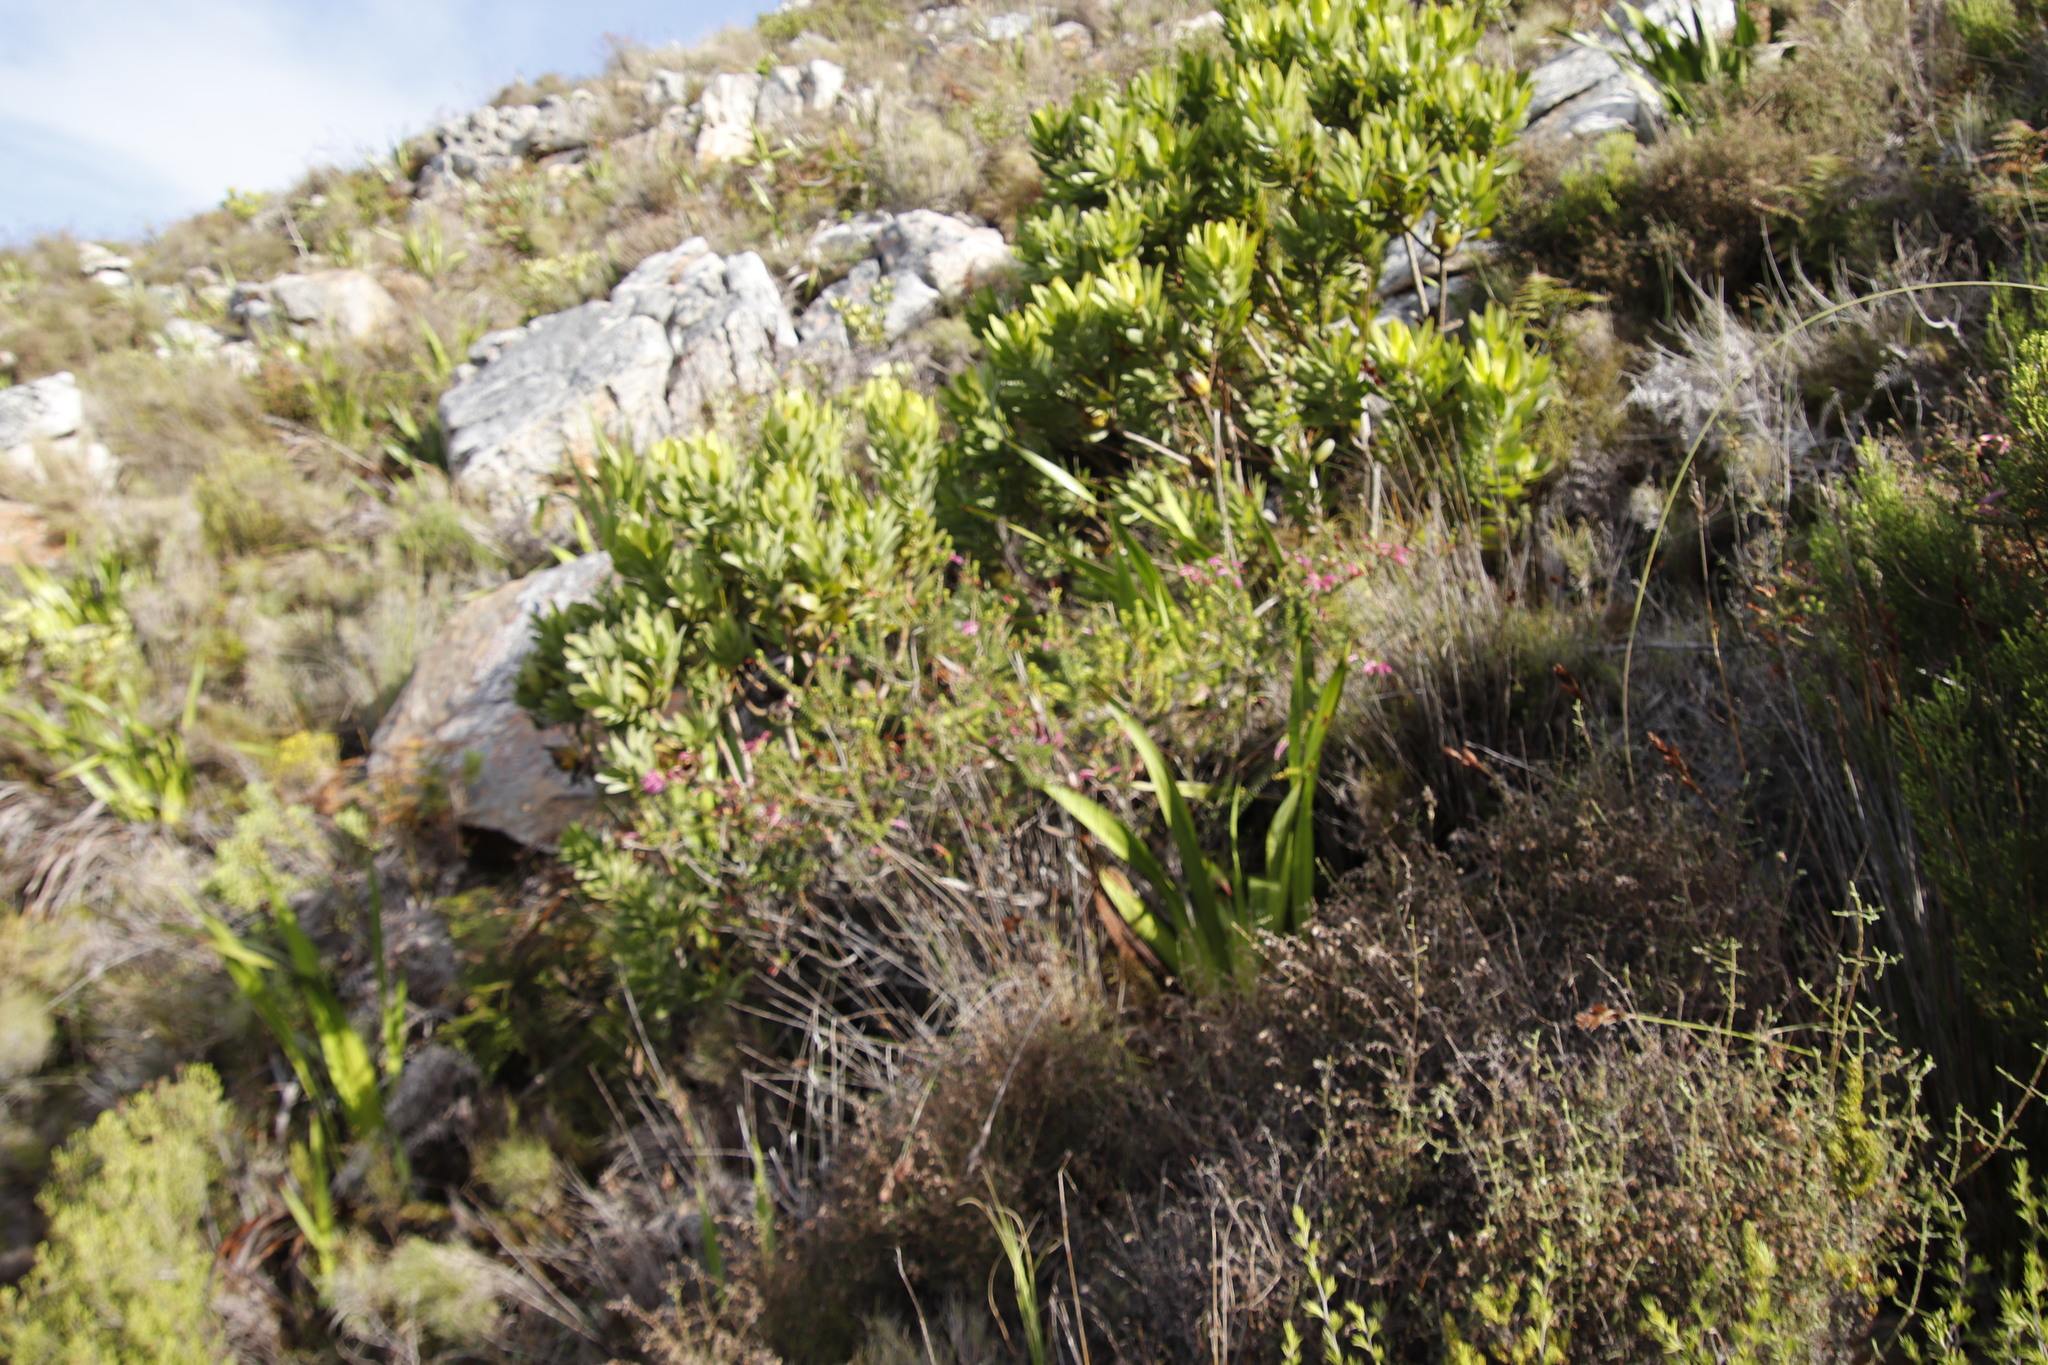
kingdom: Plantae
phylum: Tracheophyta
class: Magnoliopsida
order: Ericales
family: Ericaceae
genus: Erica
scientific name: Erica abietina
